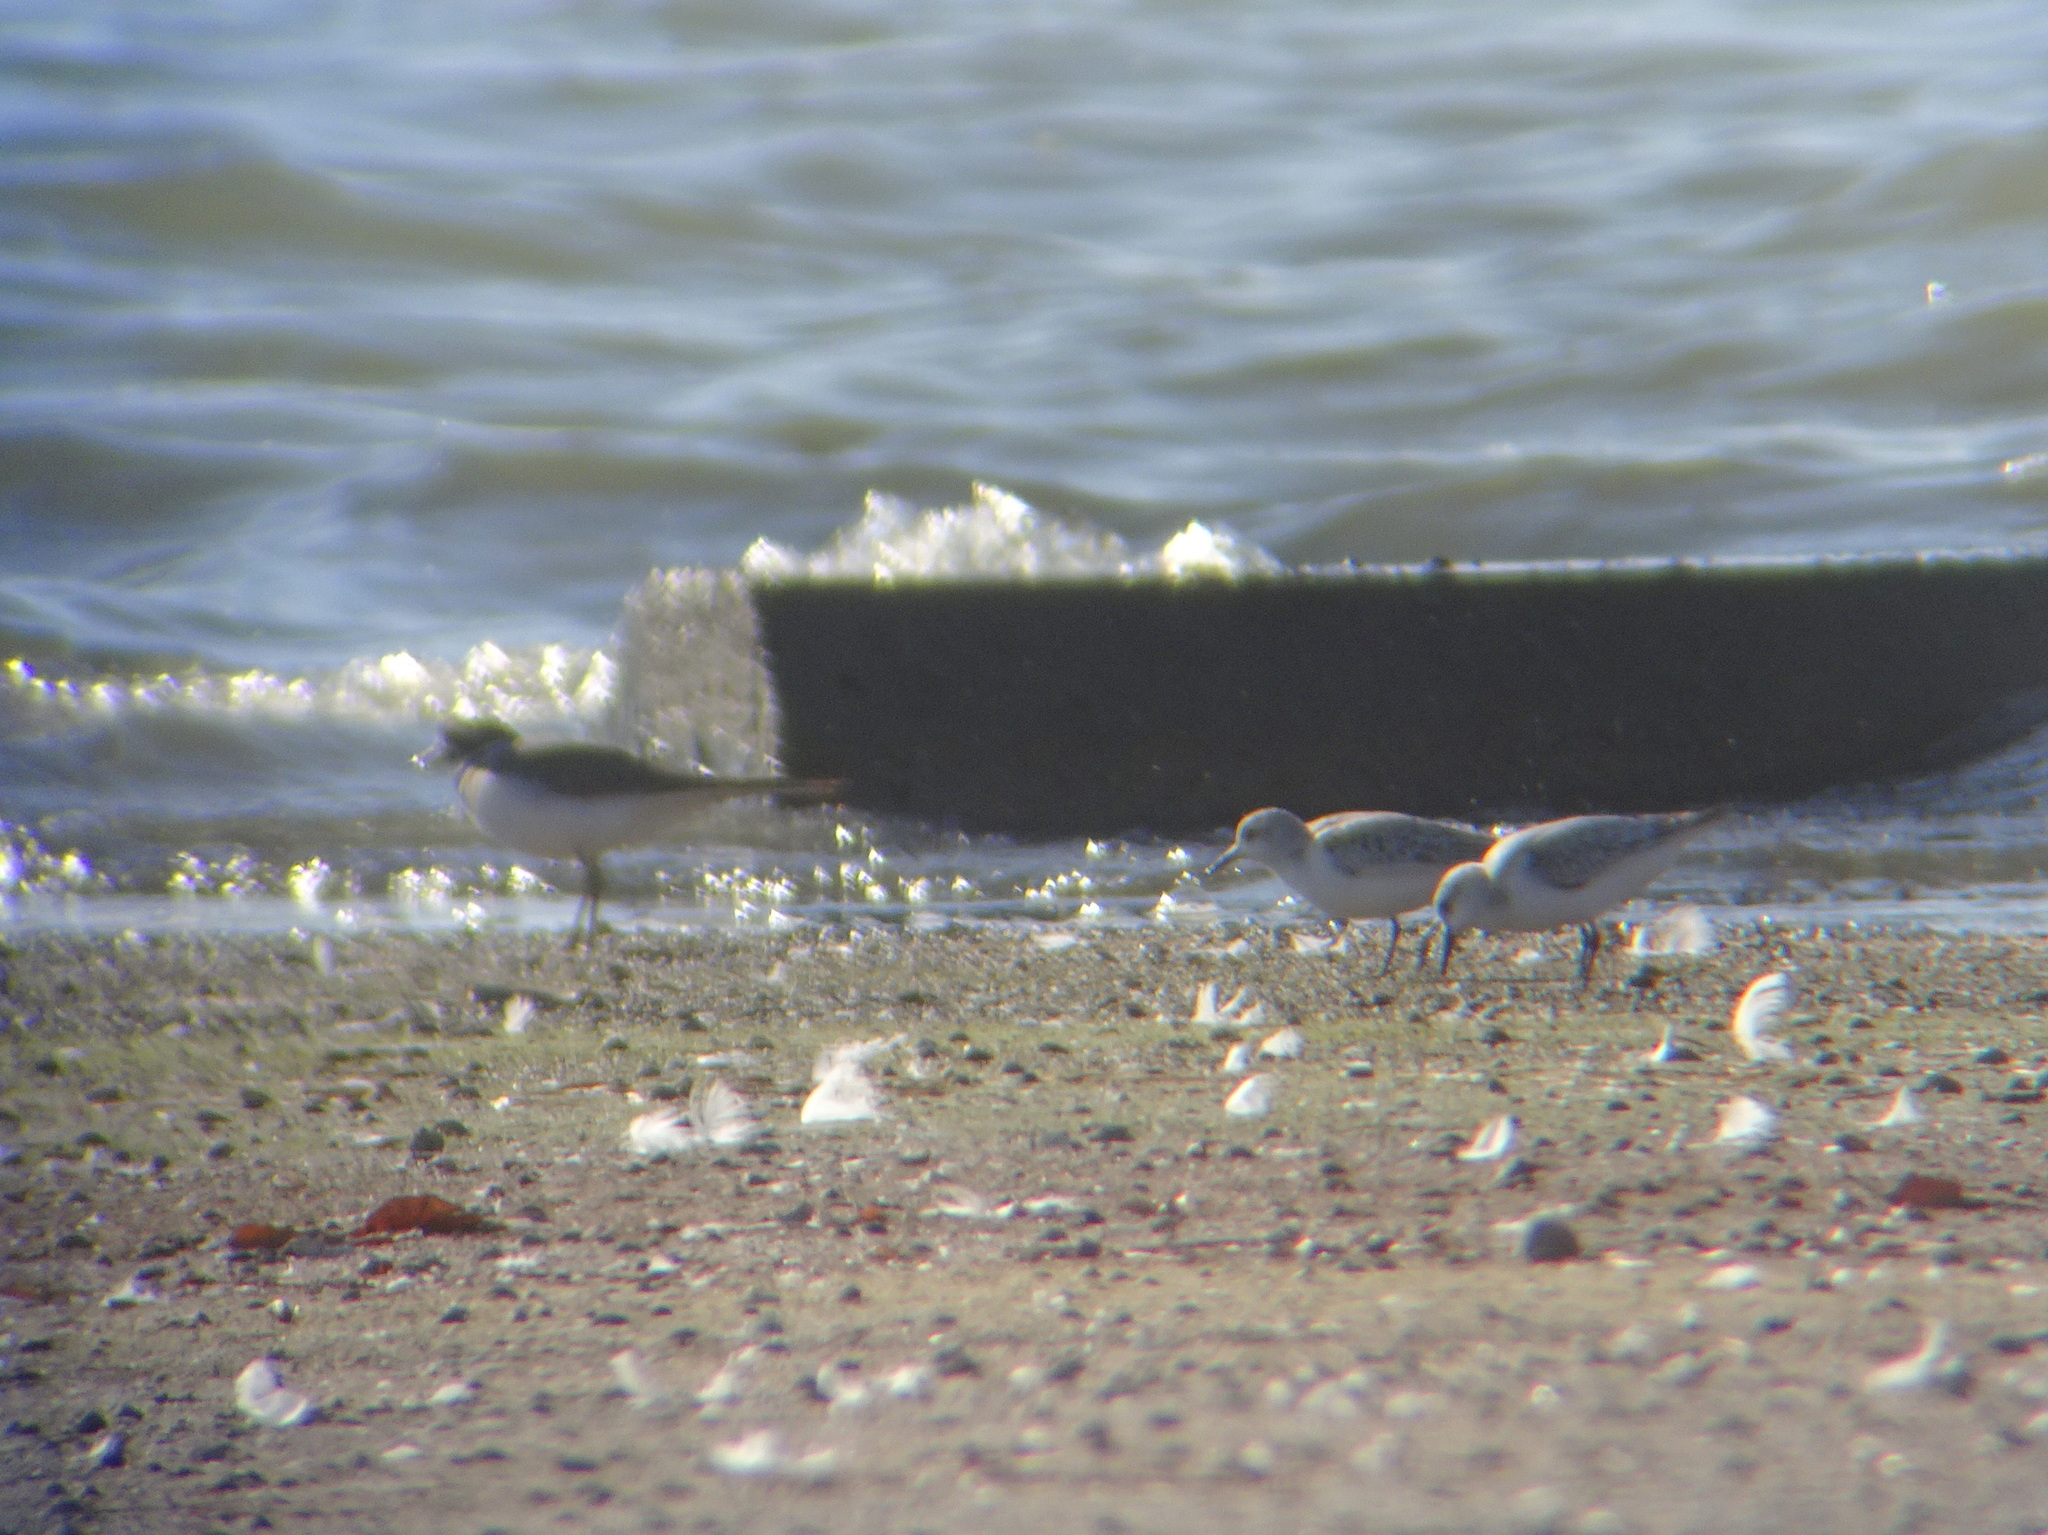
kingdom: Animalia
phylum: Chordata
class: Aves
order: Charadriiformes
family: Scolopacidae
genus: Calidris
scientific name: Calidris alba
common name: Sanderling
